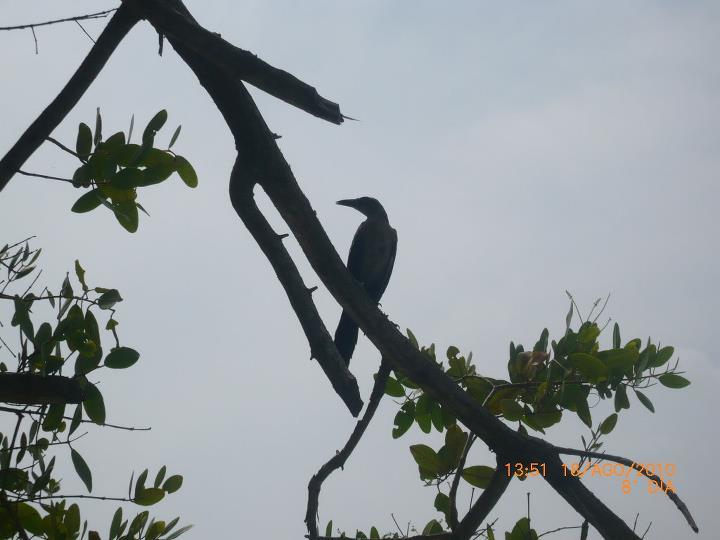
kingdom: Animalia
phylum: Chordata
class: Aves
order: Passeriformes
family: Icteridae
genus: Quiscalus
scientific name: Quiscalus mexicanus
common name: Great-tailed grackle
